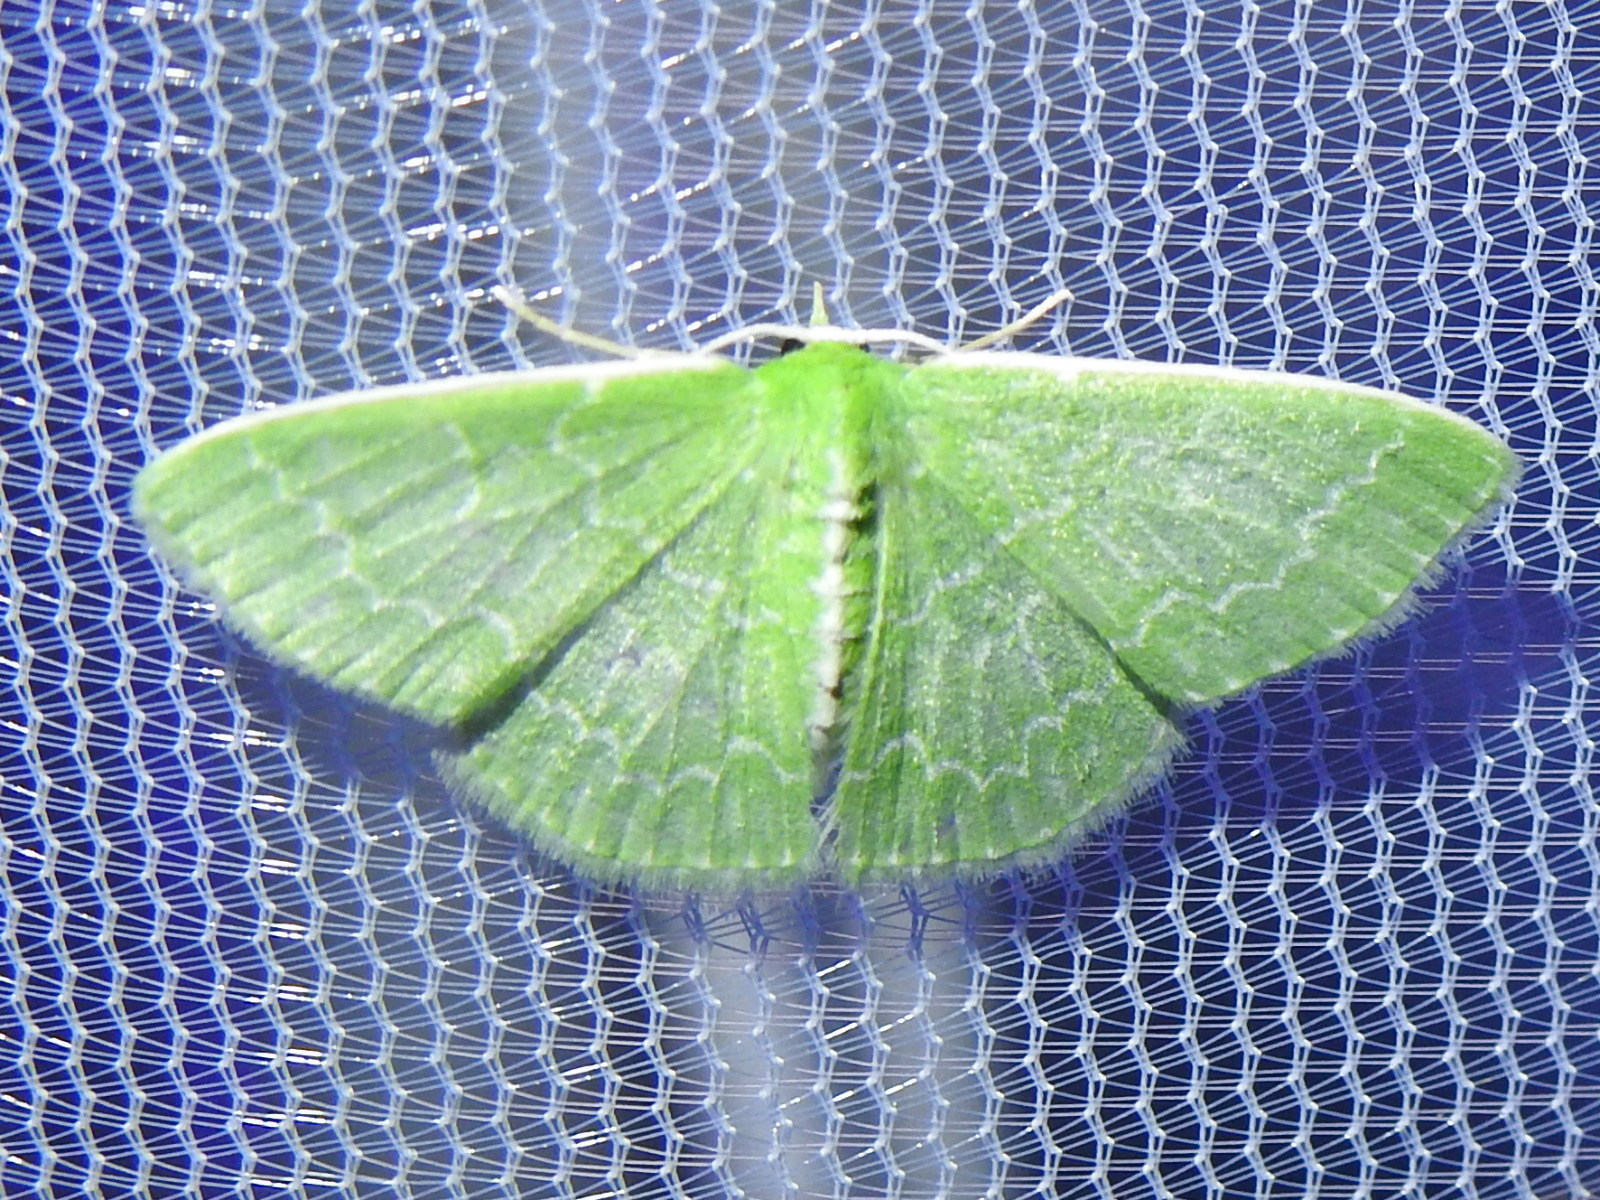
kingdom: Animalia
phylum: Arthropoda
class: Insecta
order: Lepidoptera
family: Geometridae
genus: Synchlora
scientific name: Synchlora frondaria
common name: Southern emerald
